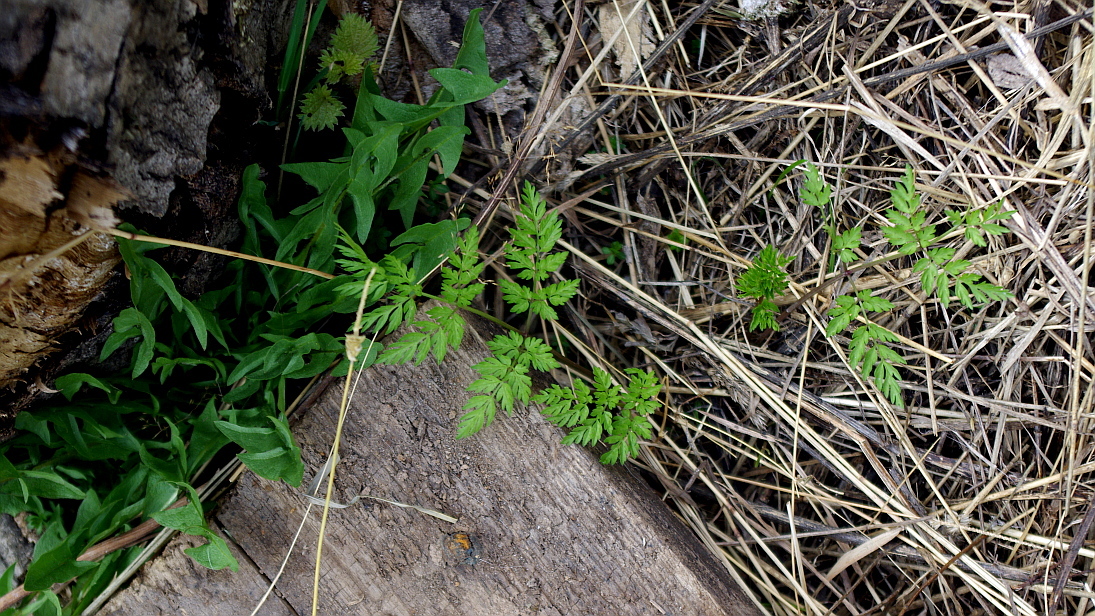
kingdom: Plantae
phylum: Tracheophyta
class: Magnoliopsida
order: Apiales
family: Apiaceae
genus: Anthriscus
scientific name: Anthriscus sylvestris
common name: Cow parsley
